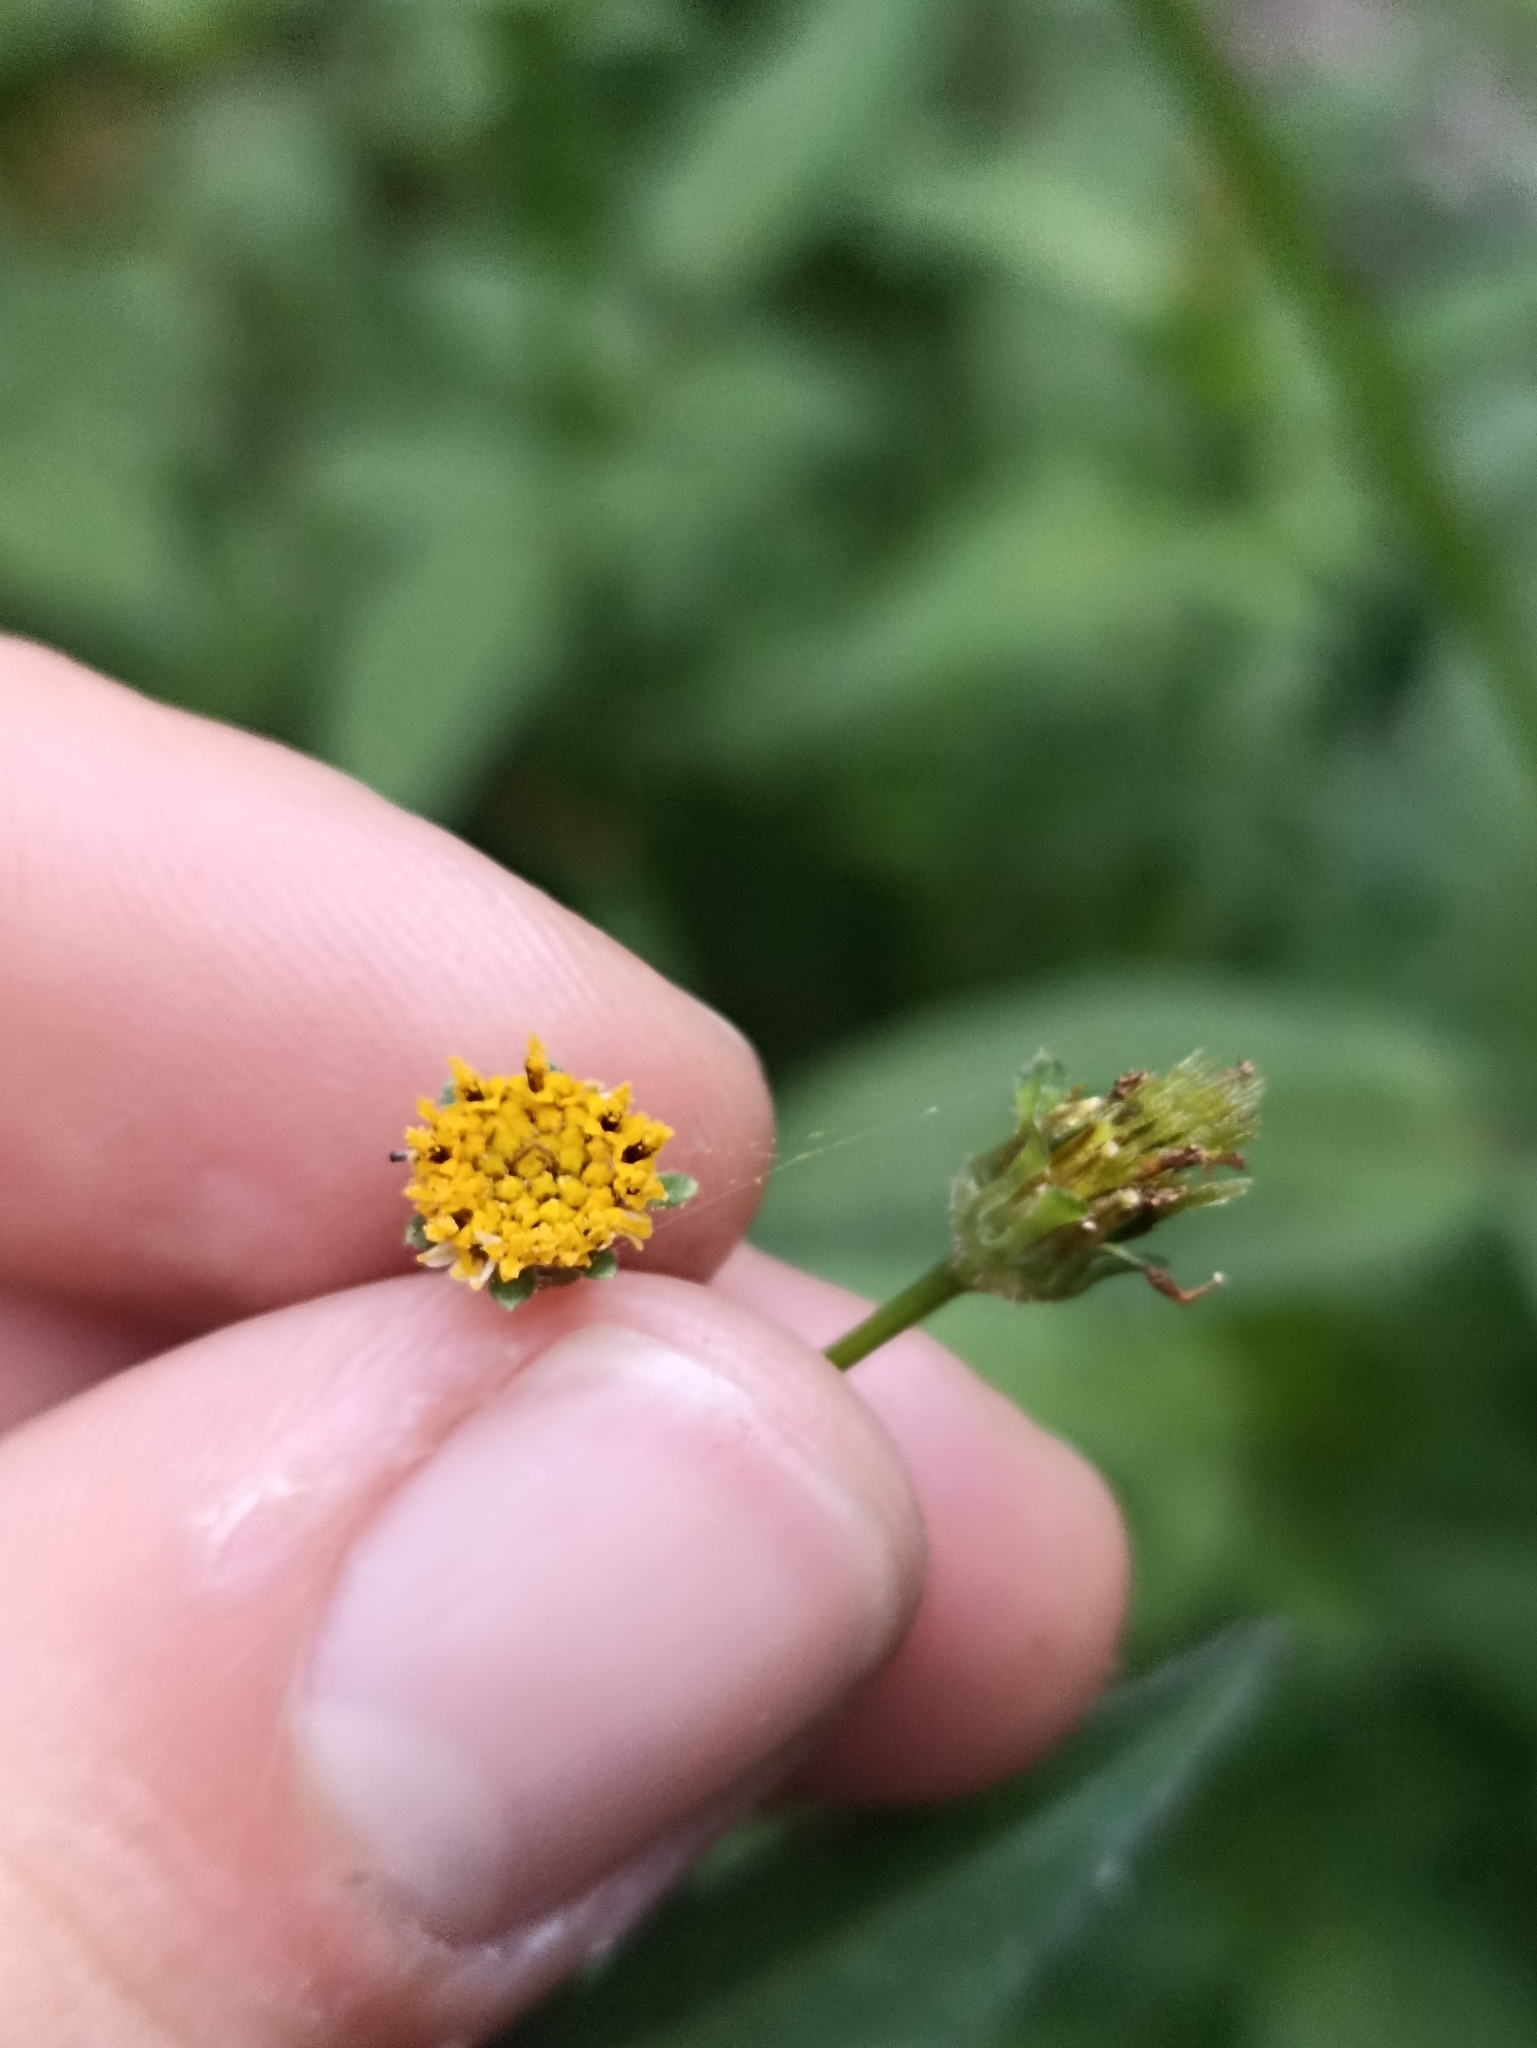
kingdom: Plantae
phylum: Tracheophyta
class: Magnoliopsida
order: Asterales
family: Asteraceae
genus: Bidens
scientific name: Bidens pilosa
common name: Black-jack
